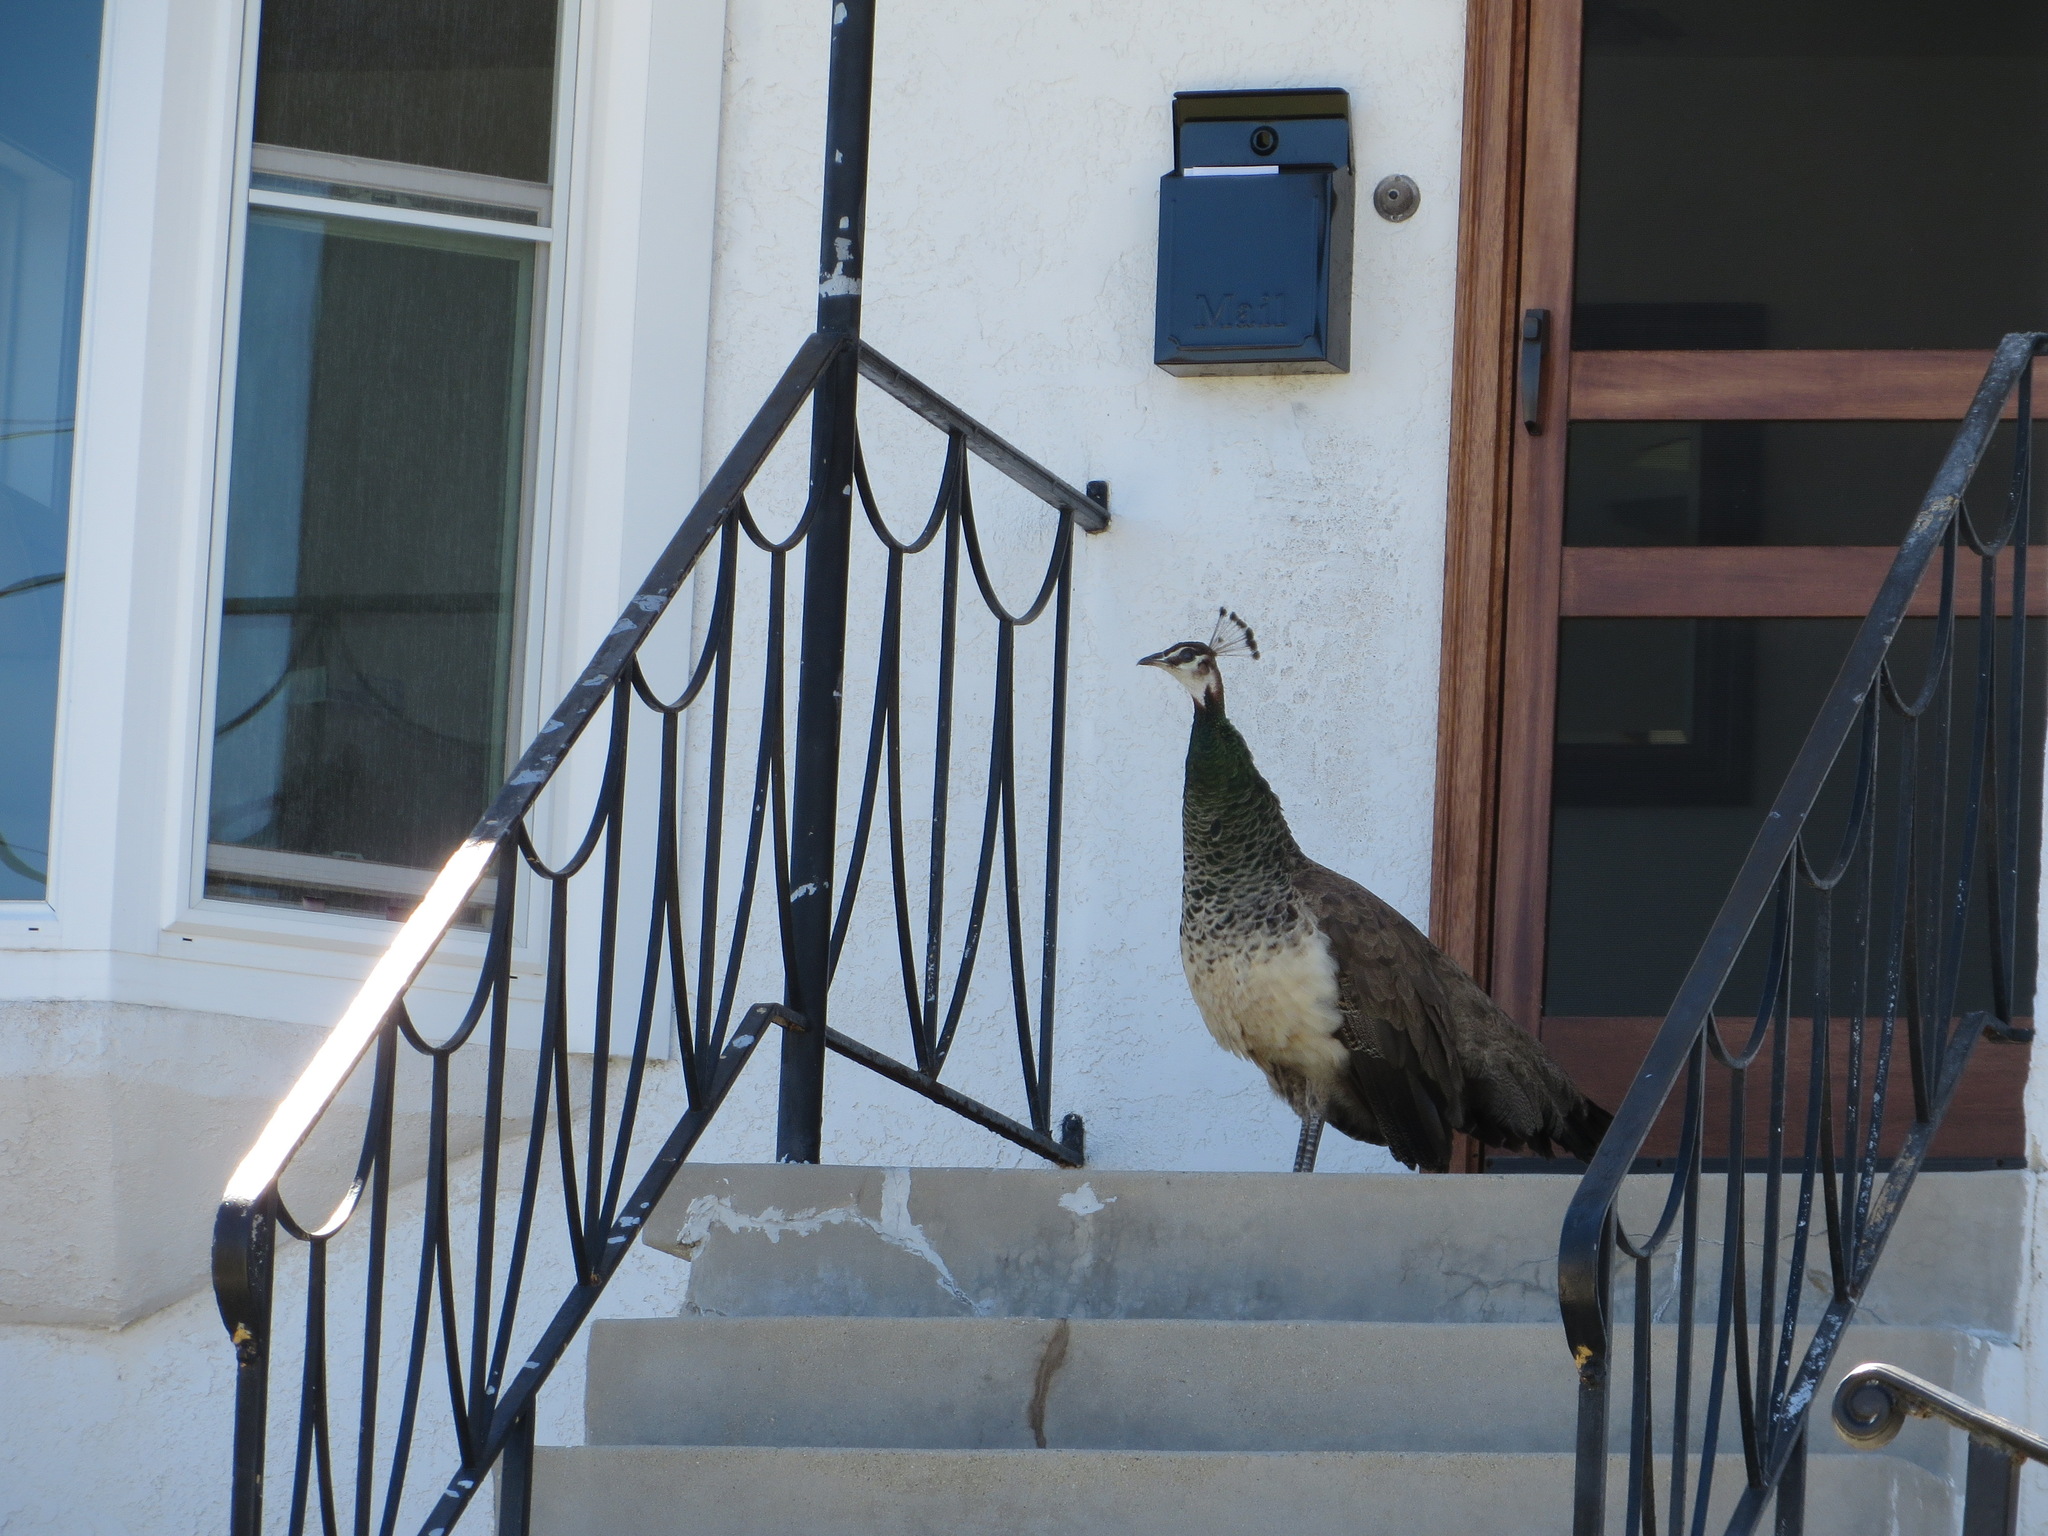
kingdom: Animalia
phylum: Chordata
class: Aves
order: Galliformes
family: Phasianidae
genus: Pavo
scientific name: Pavo cristatus
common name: Indian peafowl
